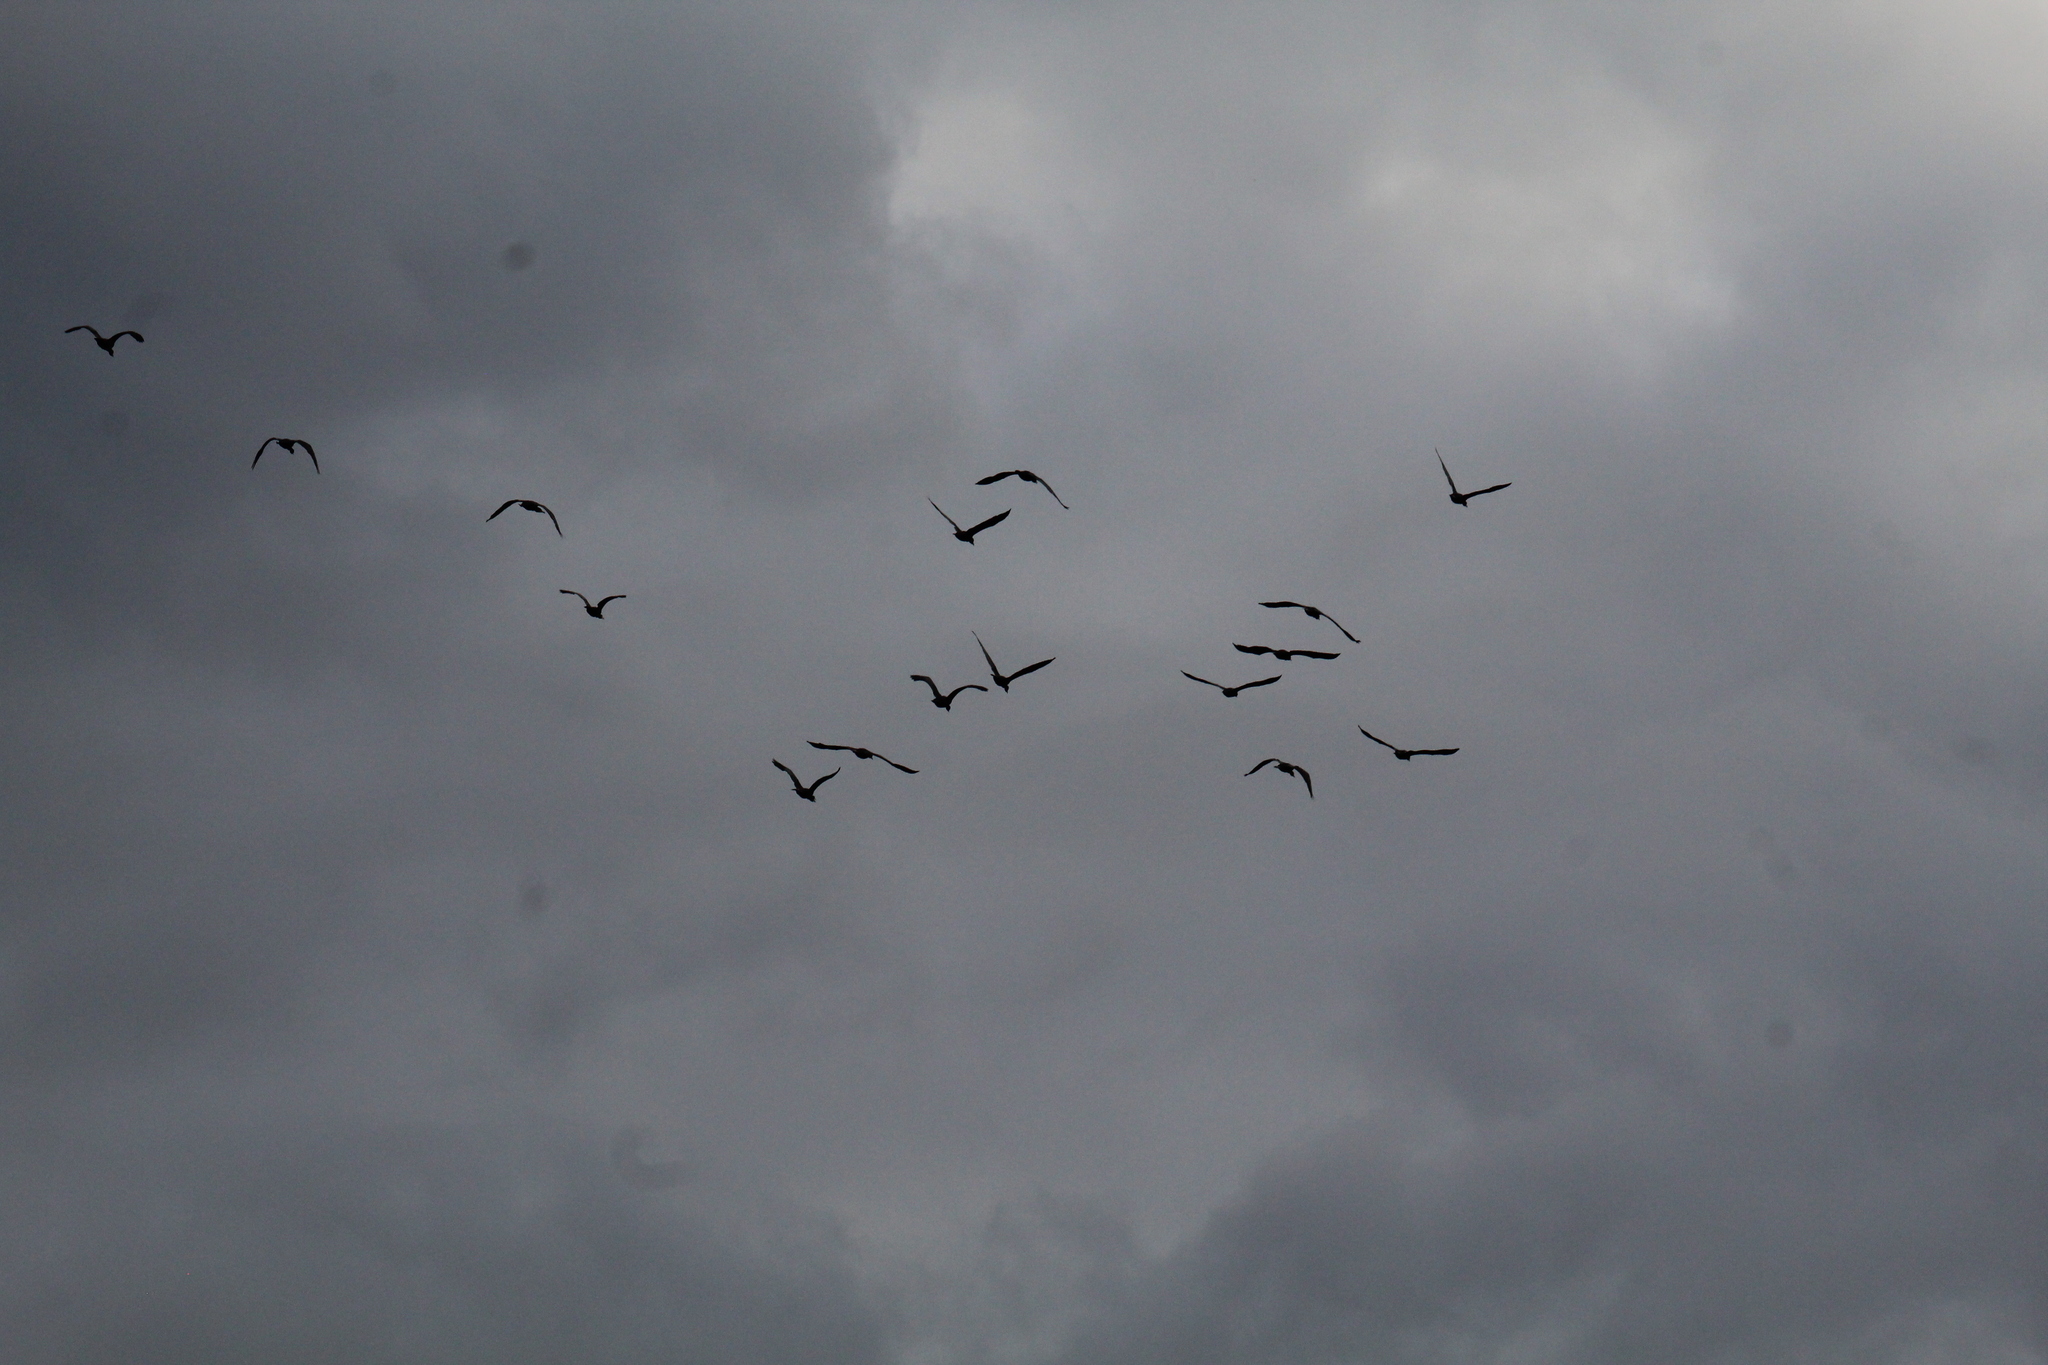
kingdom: Animalia
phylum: Chordata
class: Aves
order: Suliformes
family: Phalacrocoracidae
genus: Phalacrocorax
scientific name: Phalacrocorax carbo
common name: Great cormorant
